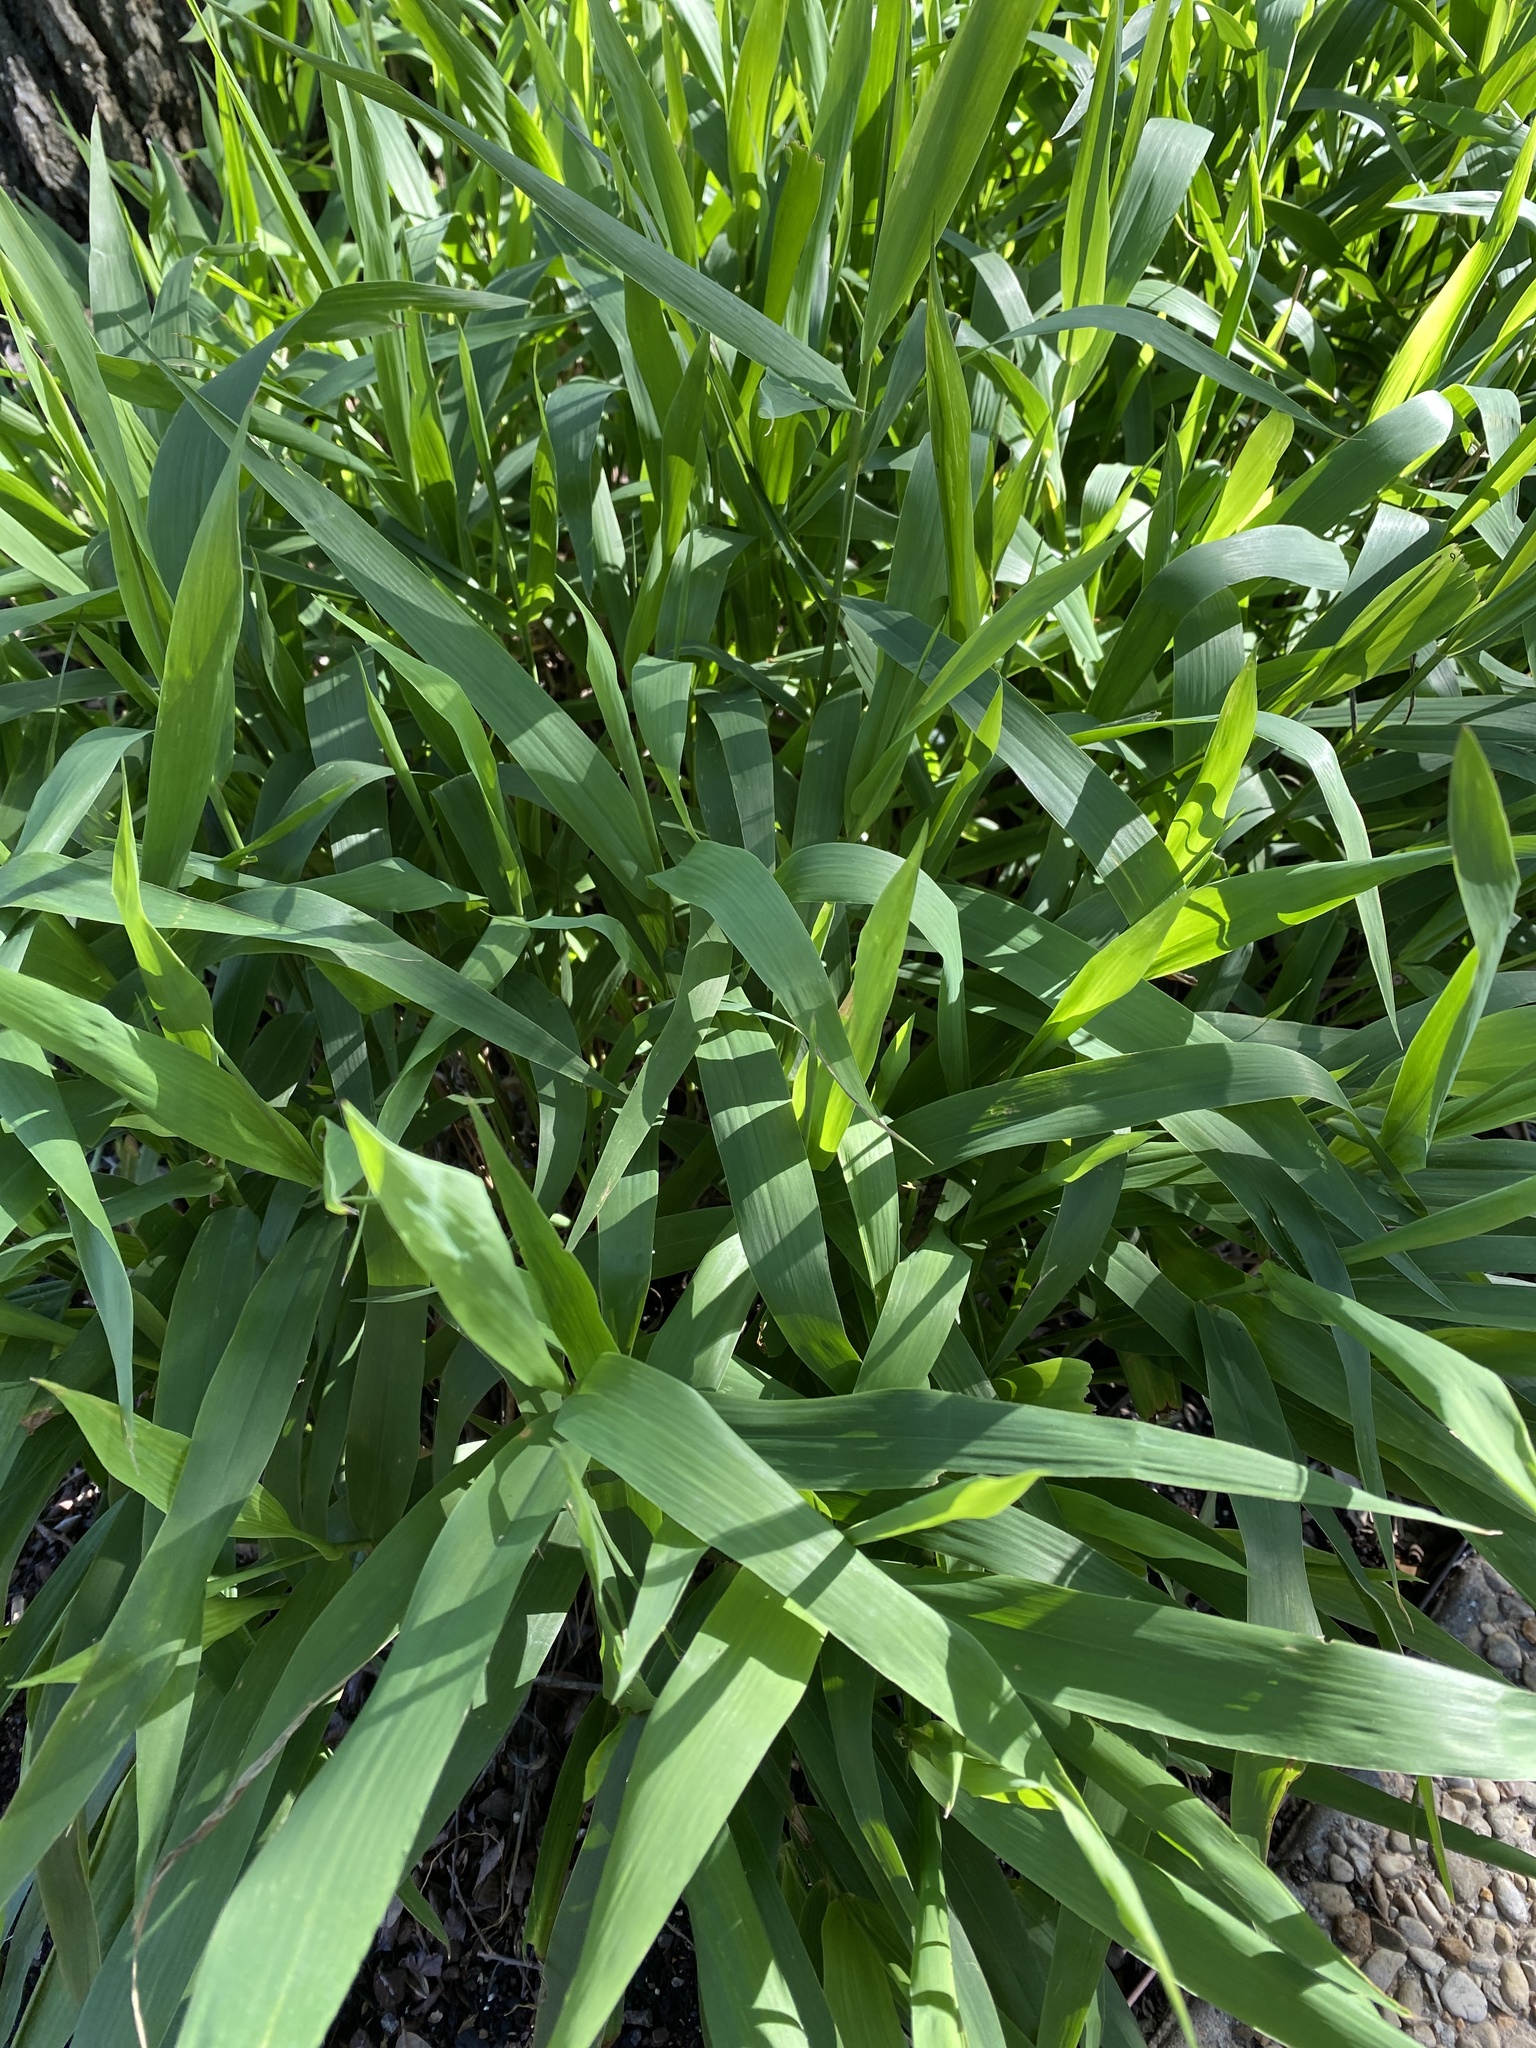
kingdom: Plantae
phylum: Tracheophyta
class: Liliopsida
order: Poales
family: Poaceae
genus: Chasmanthium
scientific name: Chasmanthium latifolium
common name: Broad-leaved chasmanthium
